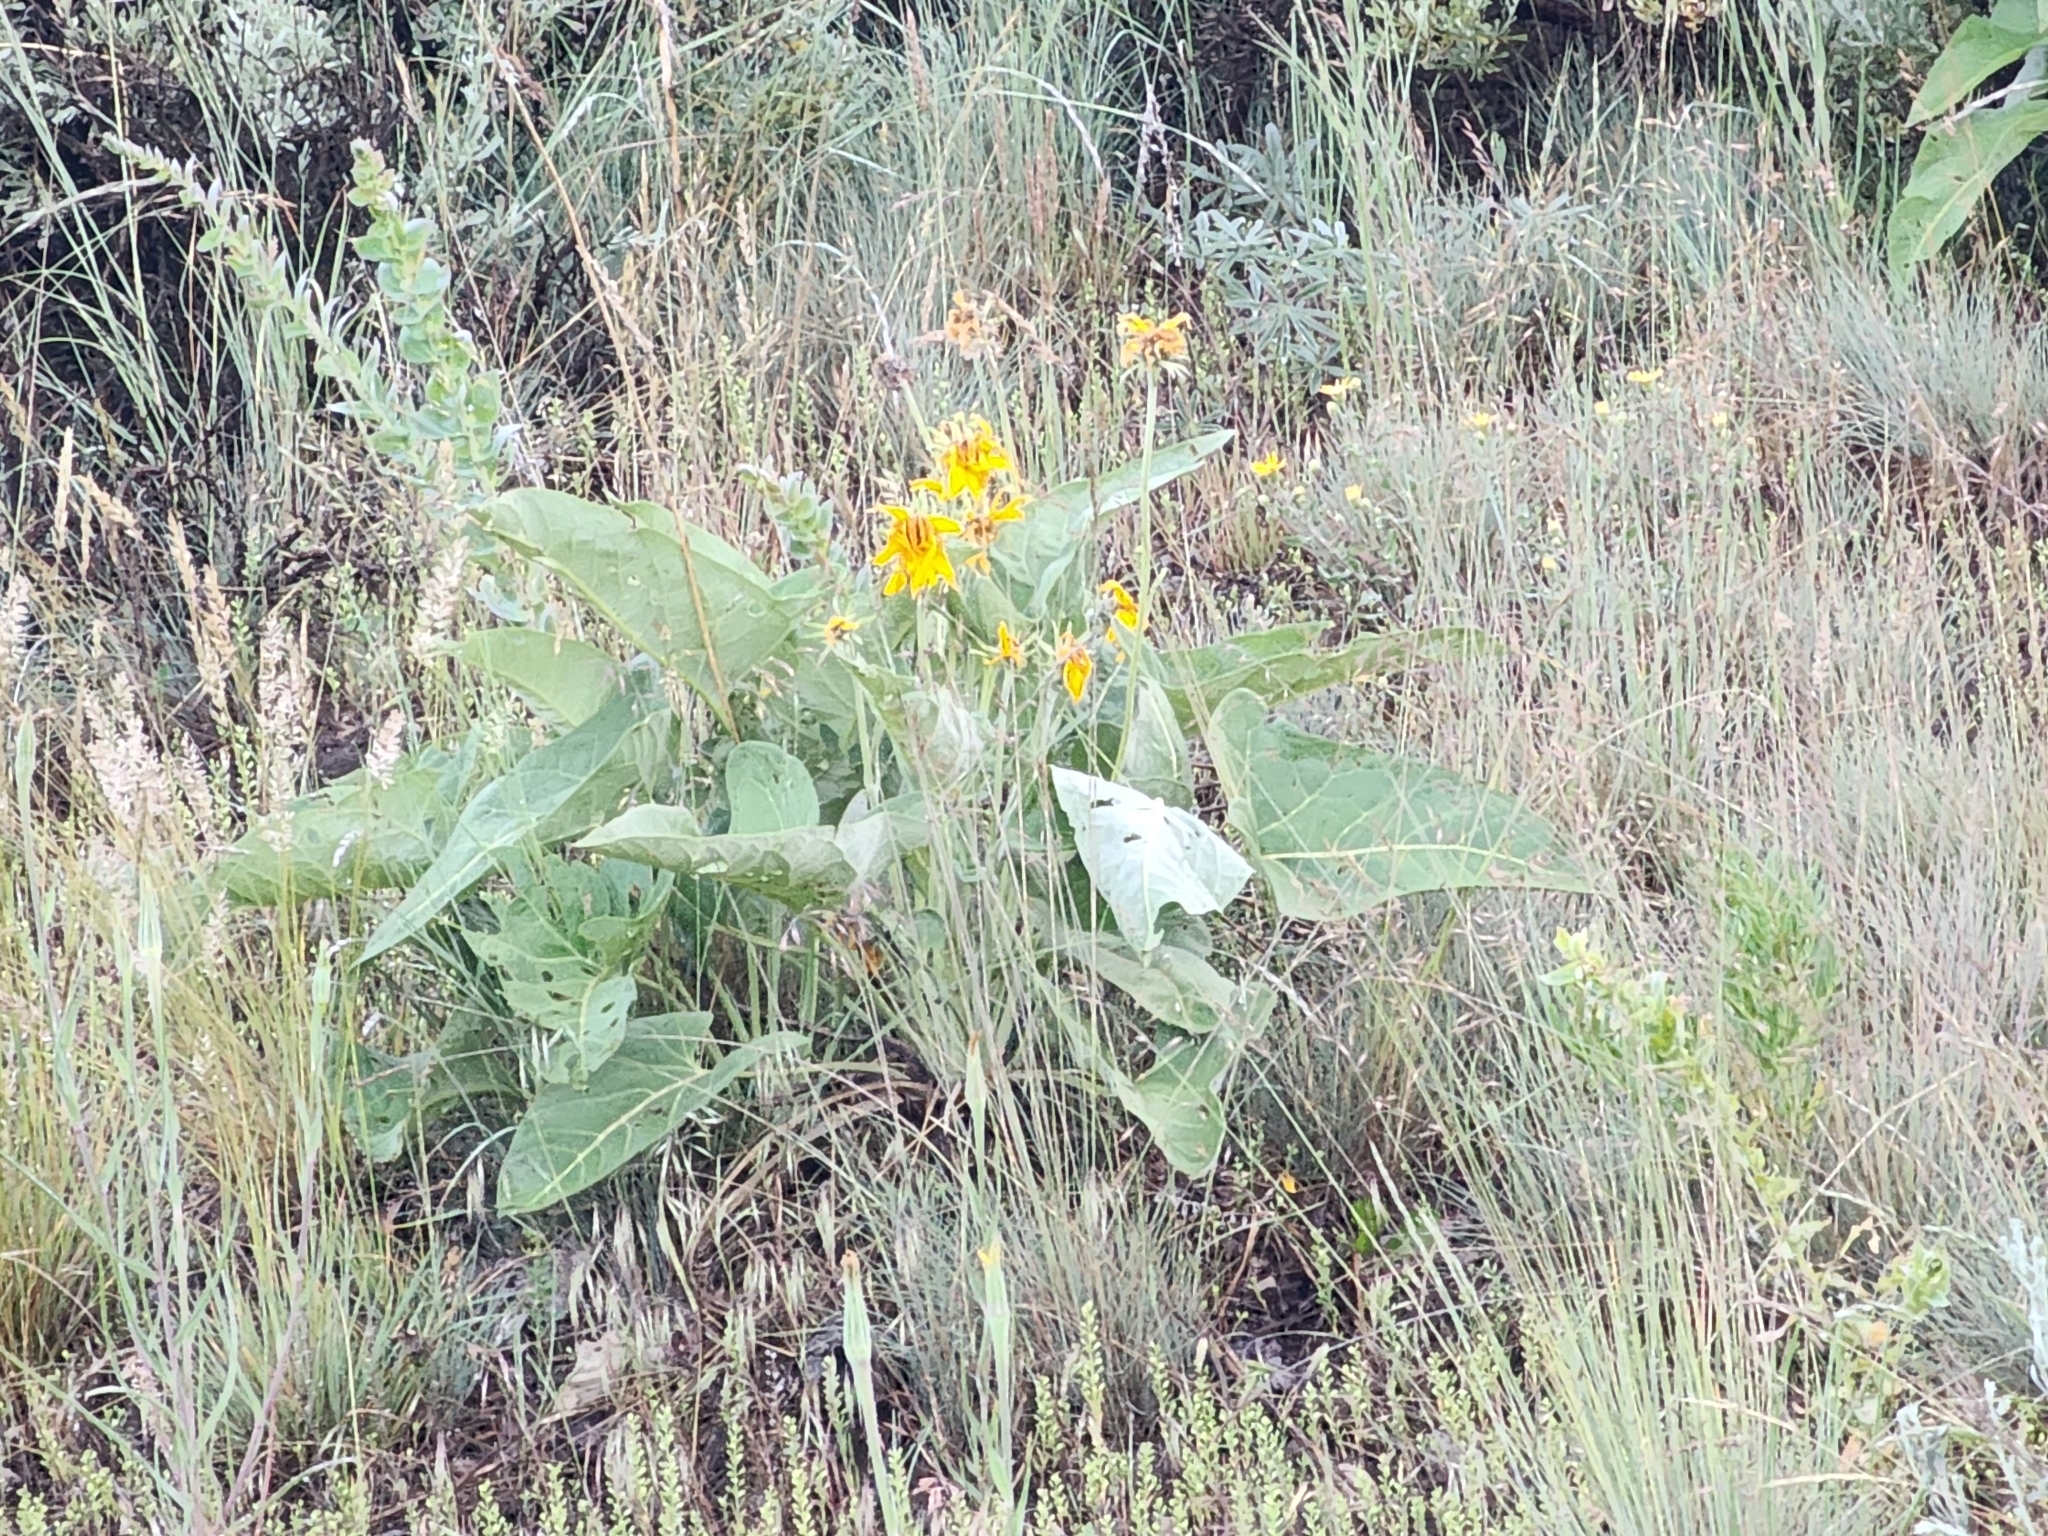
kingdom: Plantae
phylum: Tracheophyta
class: Magnoliopsida
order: Asterales
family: Asteraceae
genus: Wyethia
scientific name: Wyethia sagittata
